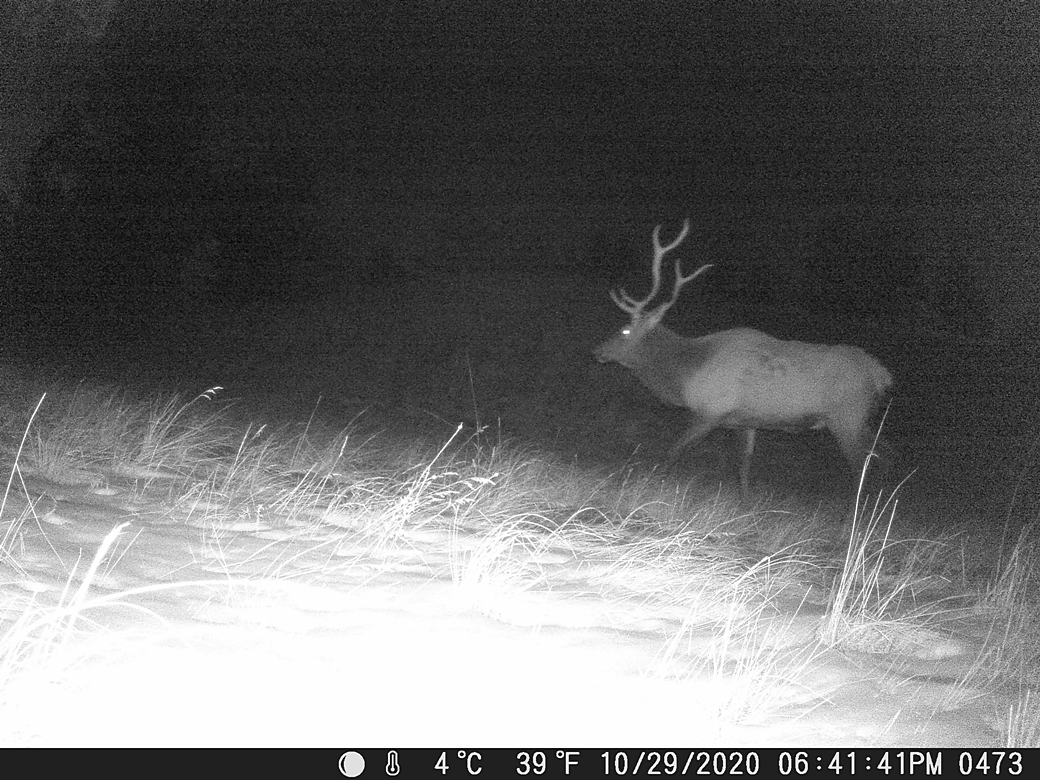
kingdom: Animalia
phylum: Chordata
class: Mammalia
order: Artiodactyla
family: Cervidae
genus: Cervus
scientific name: Cervus elaphus
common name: Red deer
